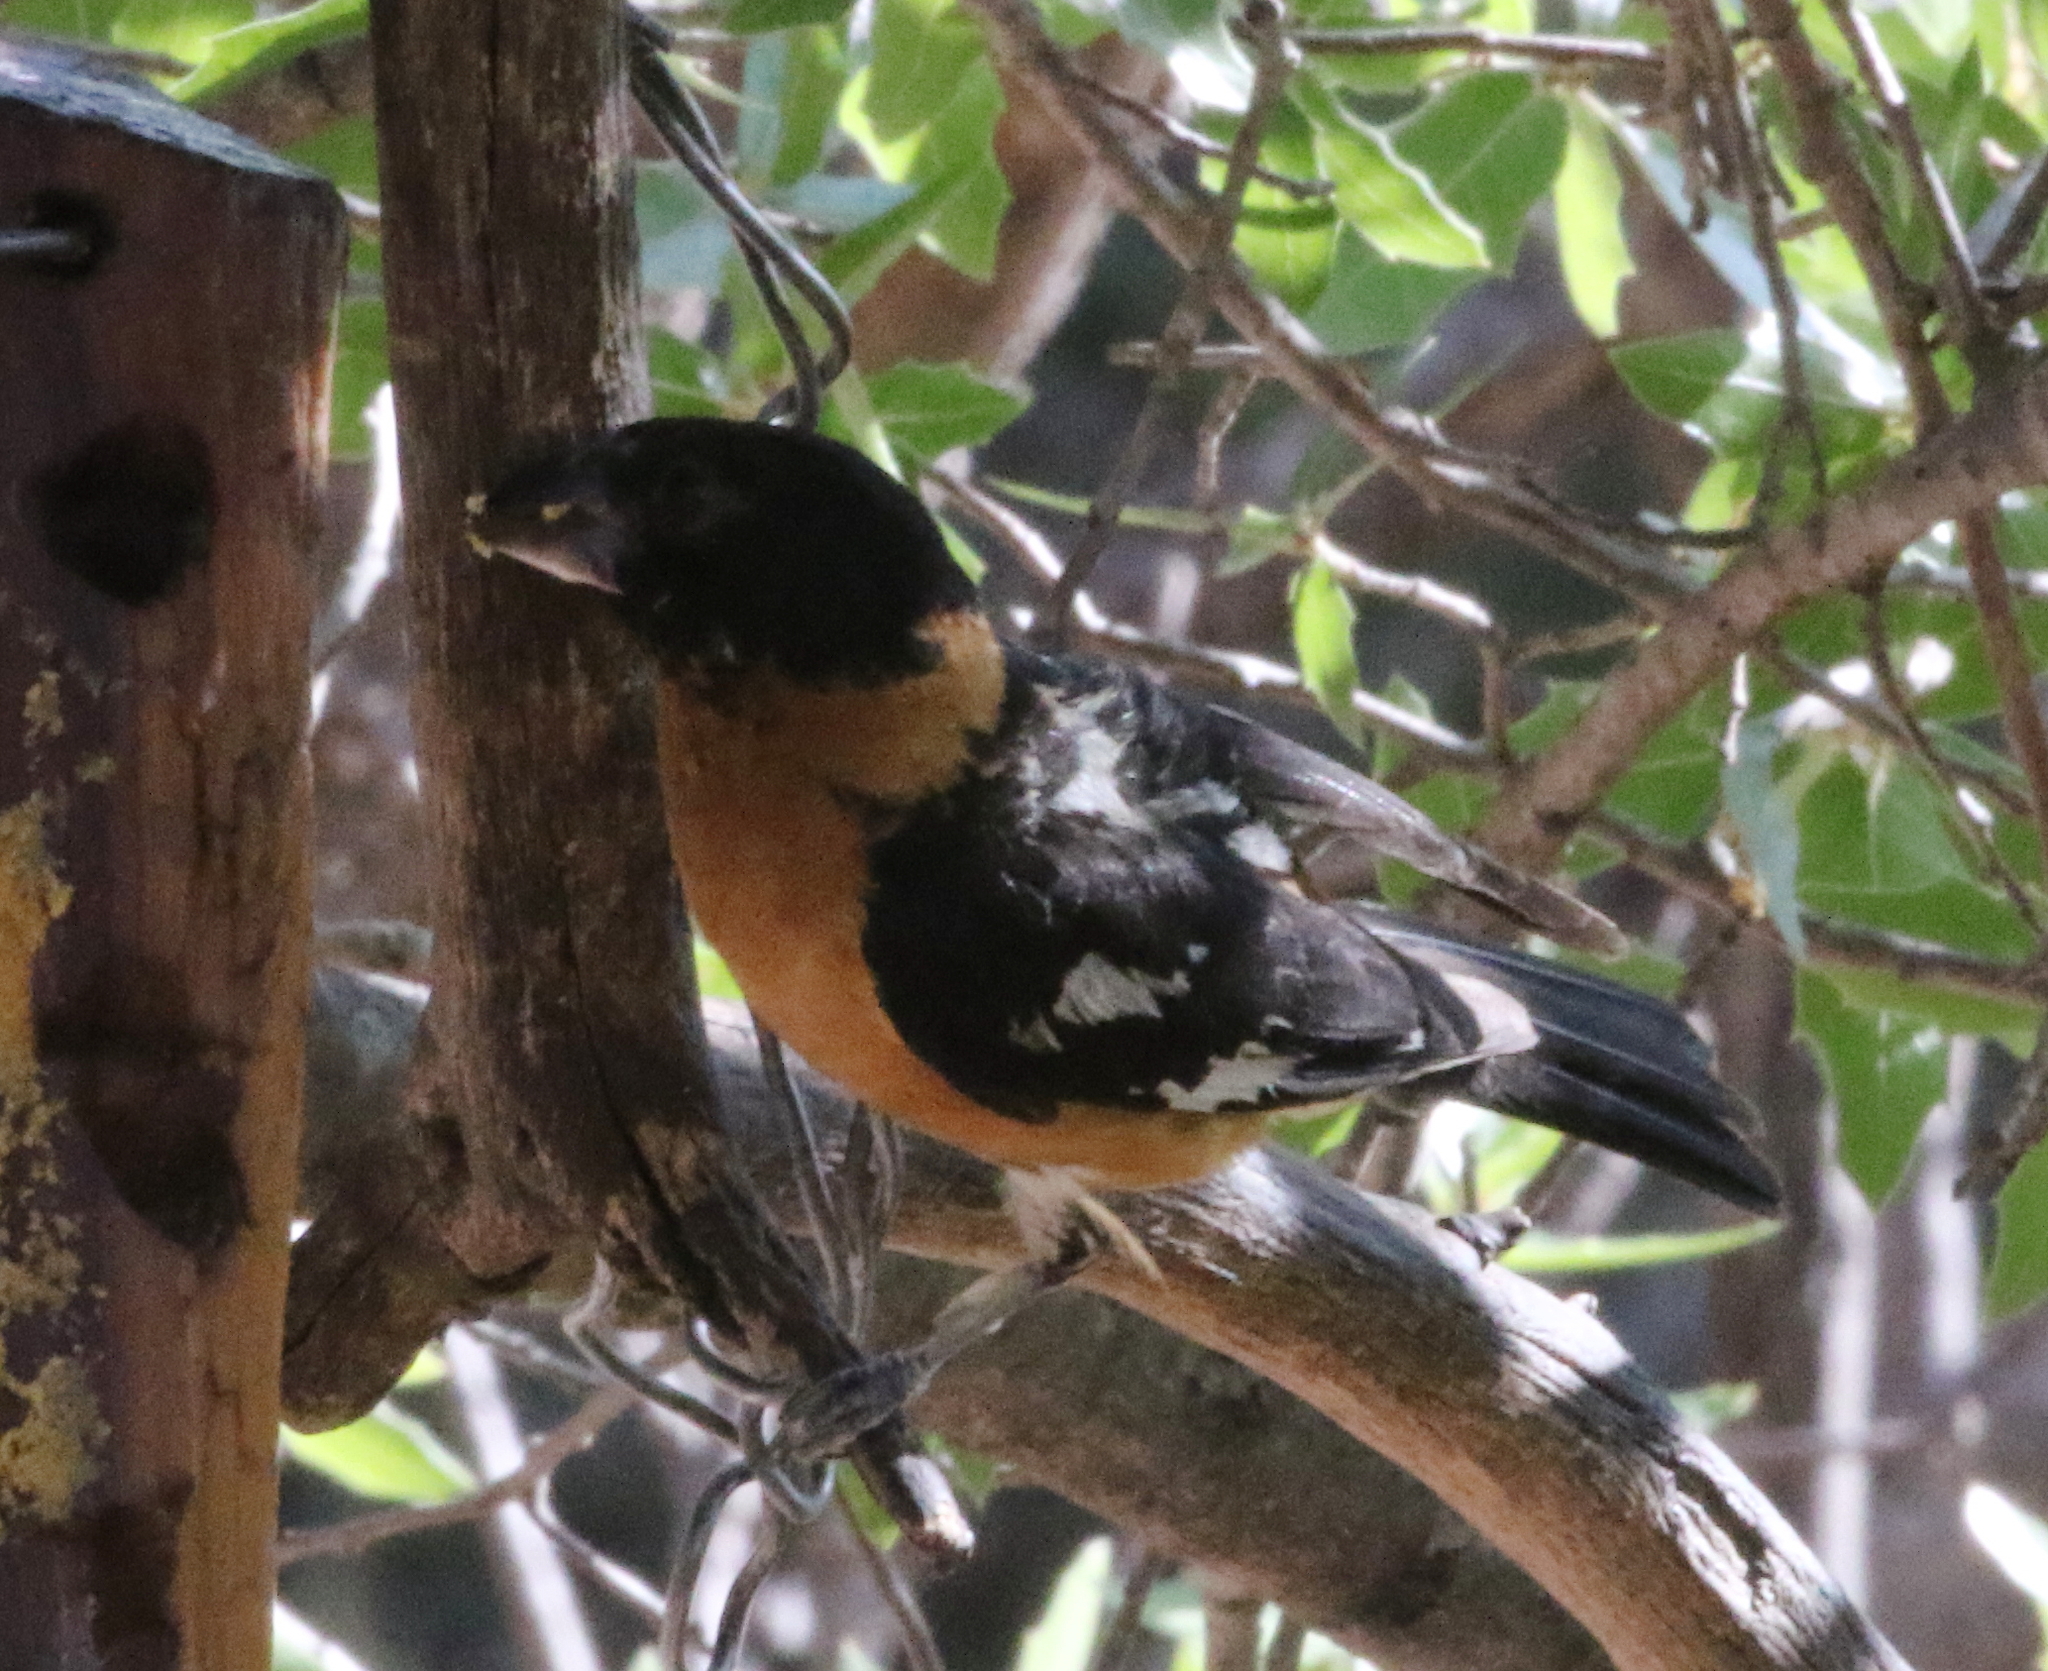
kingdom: Animalia
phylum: Chordata
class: Aves
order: Passeriformes
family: Cardinalidae
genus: Pheucticus
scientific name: Pheucticus melanocephalus
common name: Black-headed grosbeak
